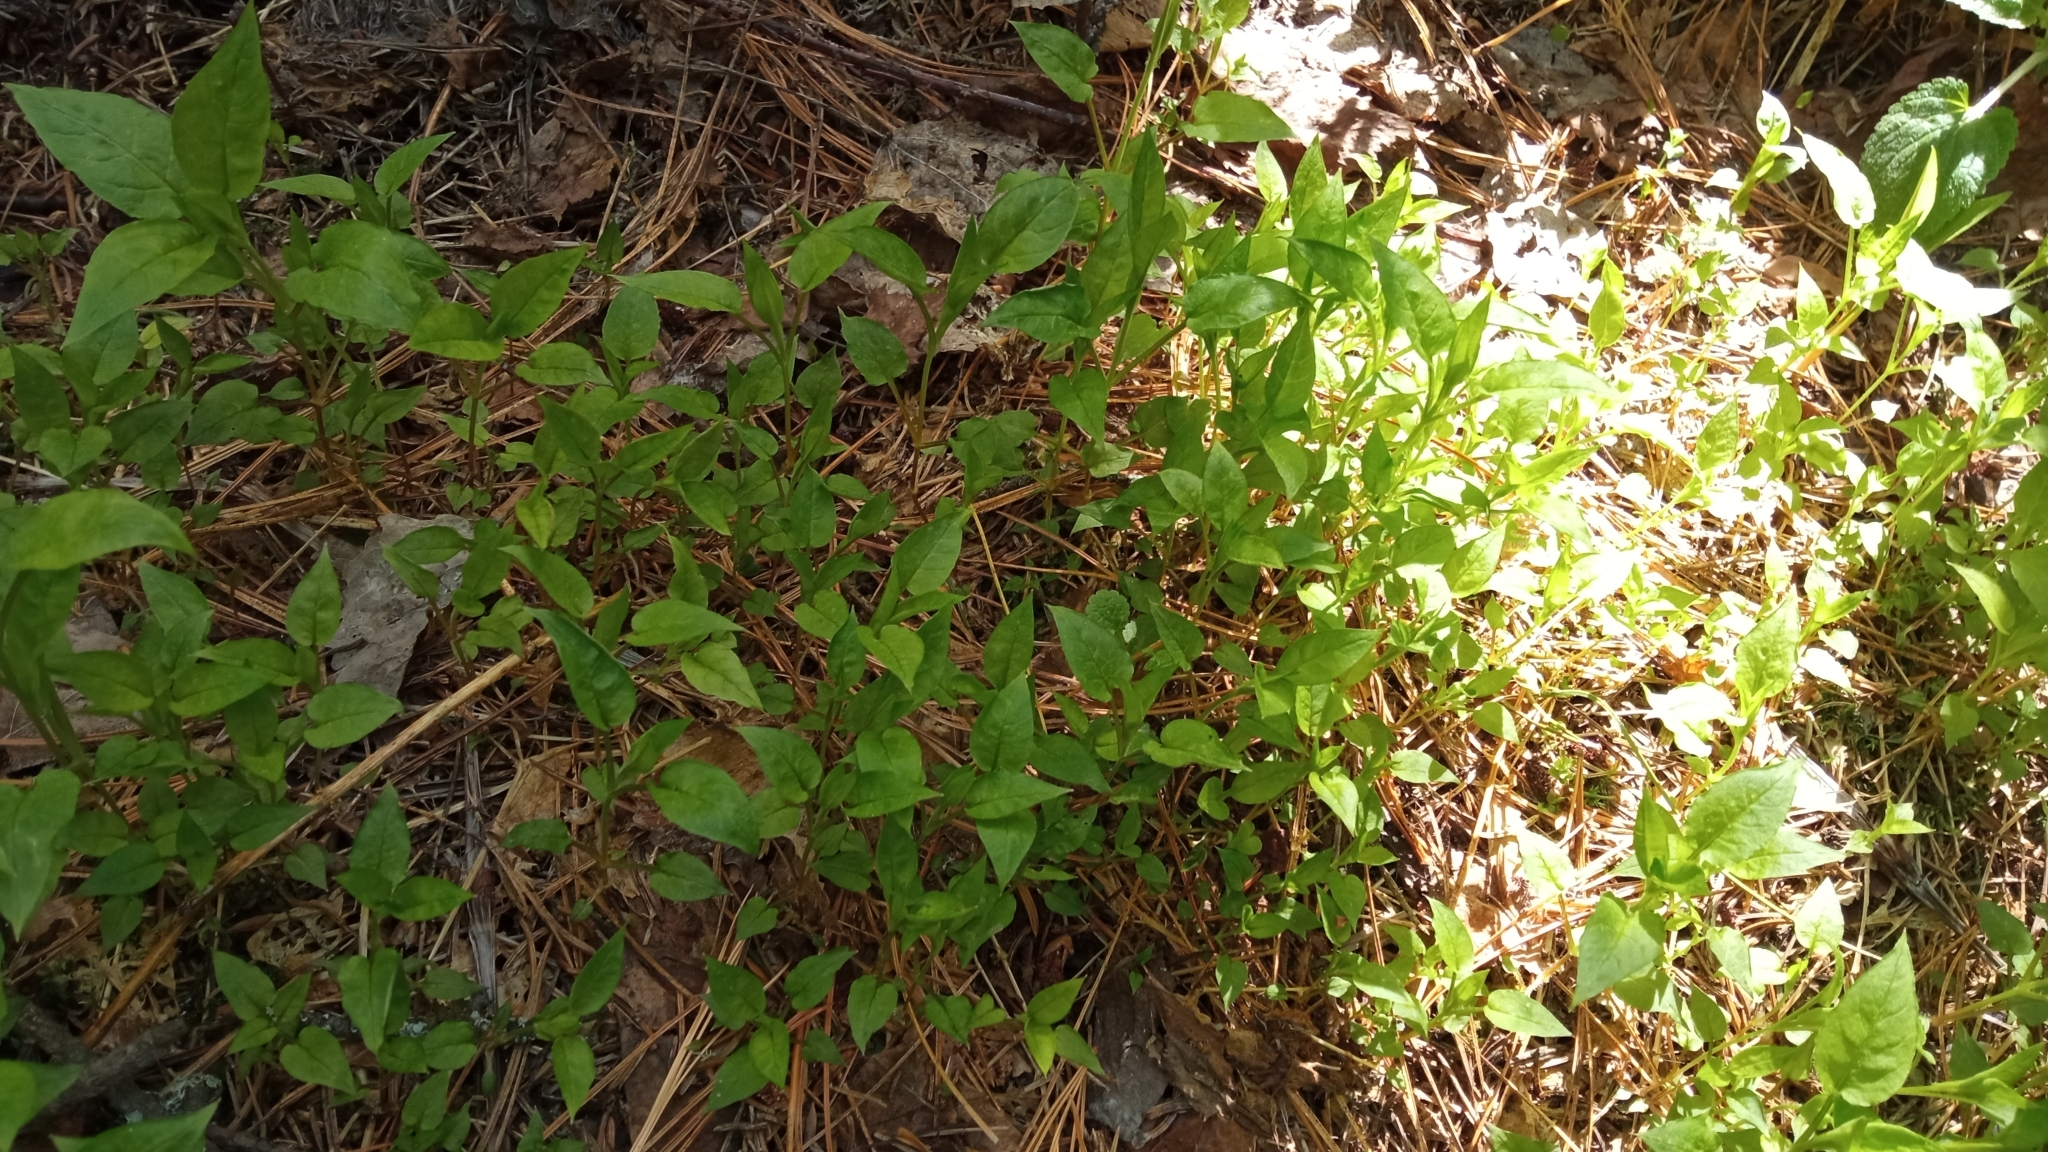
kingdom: Plantae
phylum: Tracheophyta
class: Magnoliopsida
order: Caryophyllales
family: Caryophyllaceae
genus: Stellaria
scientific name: Stellaria bungeana
